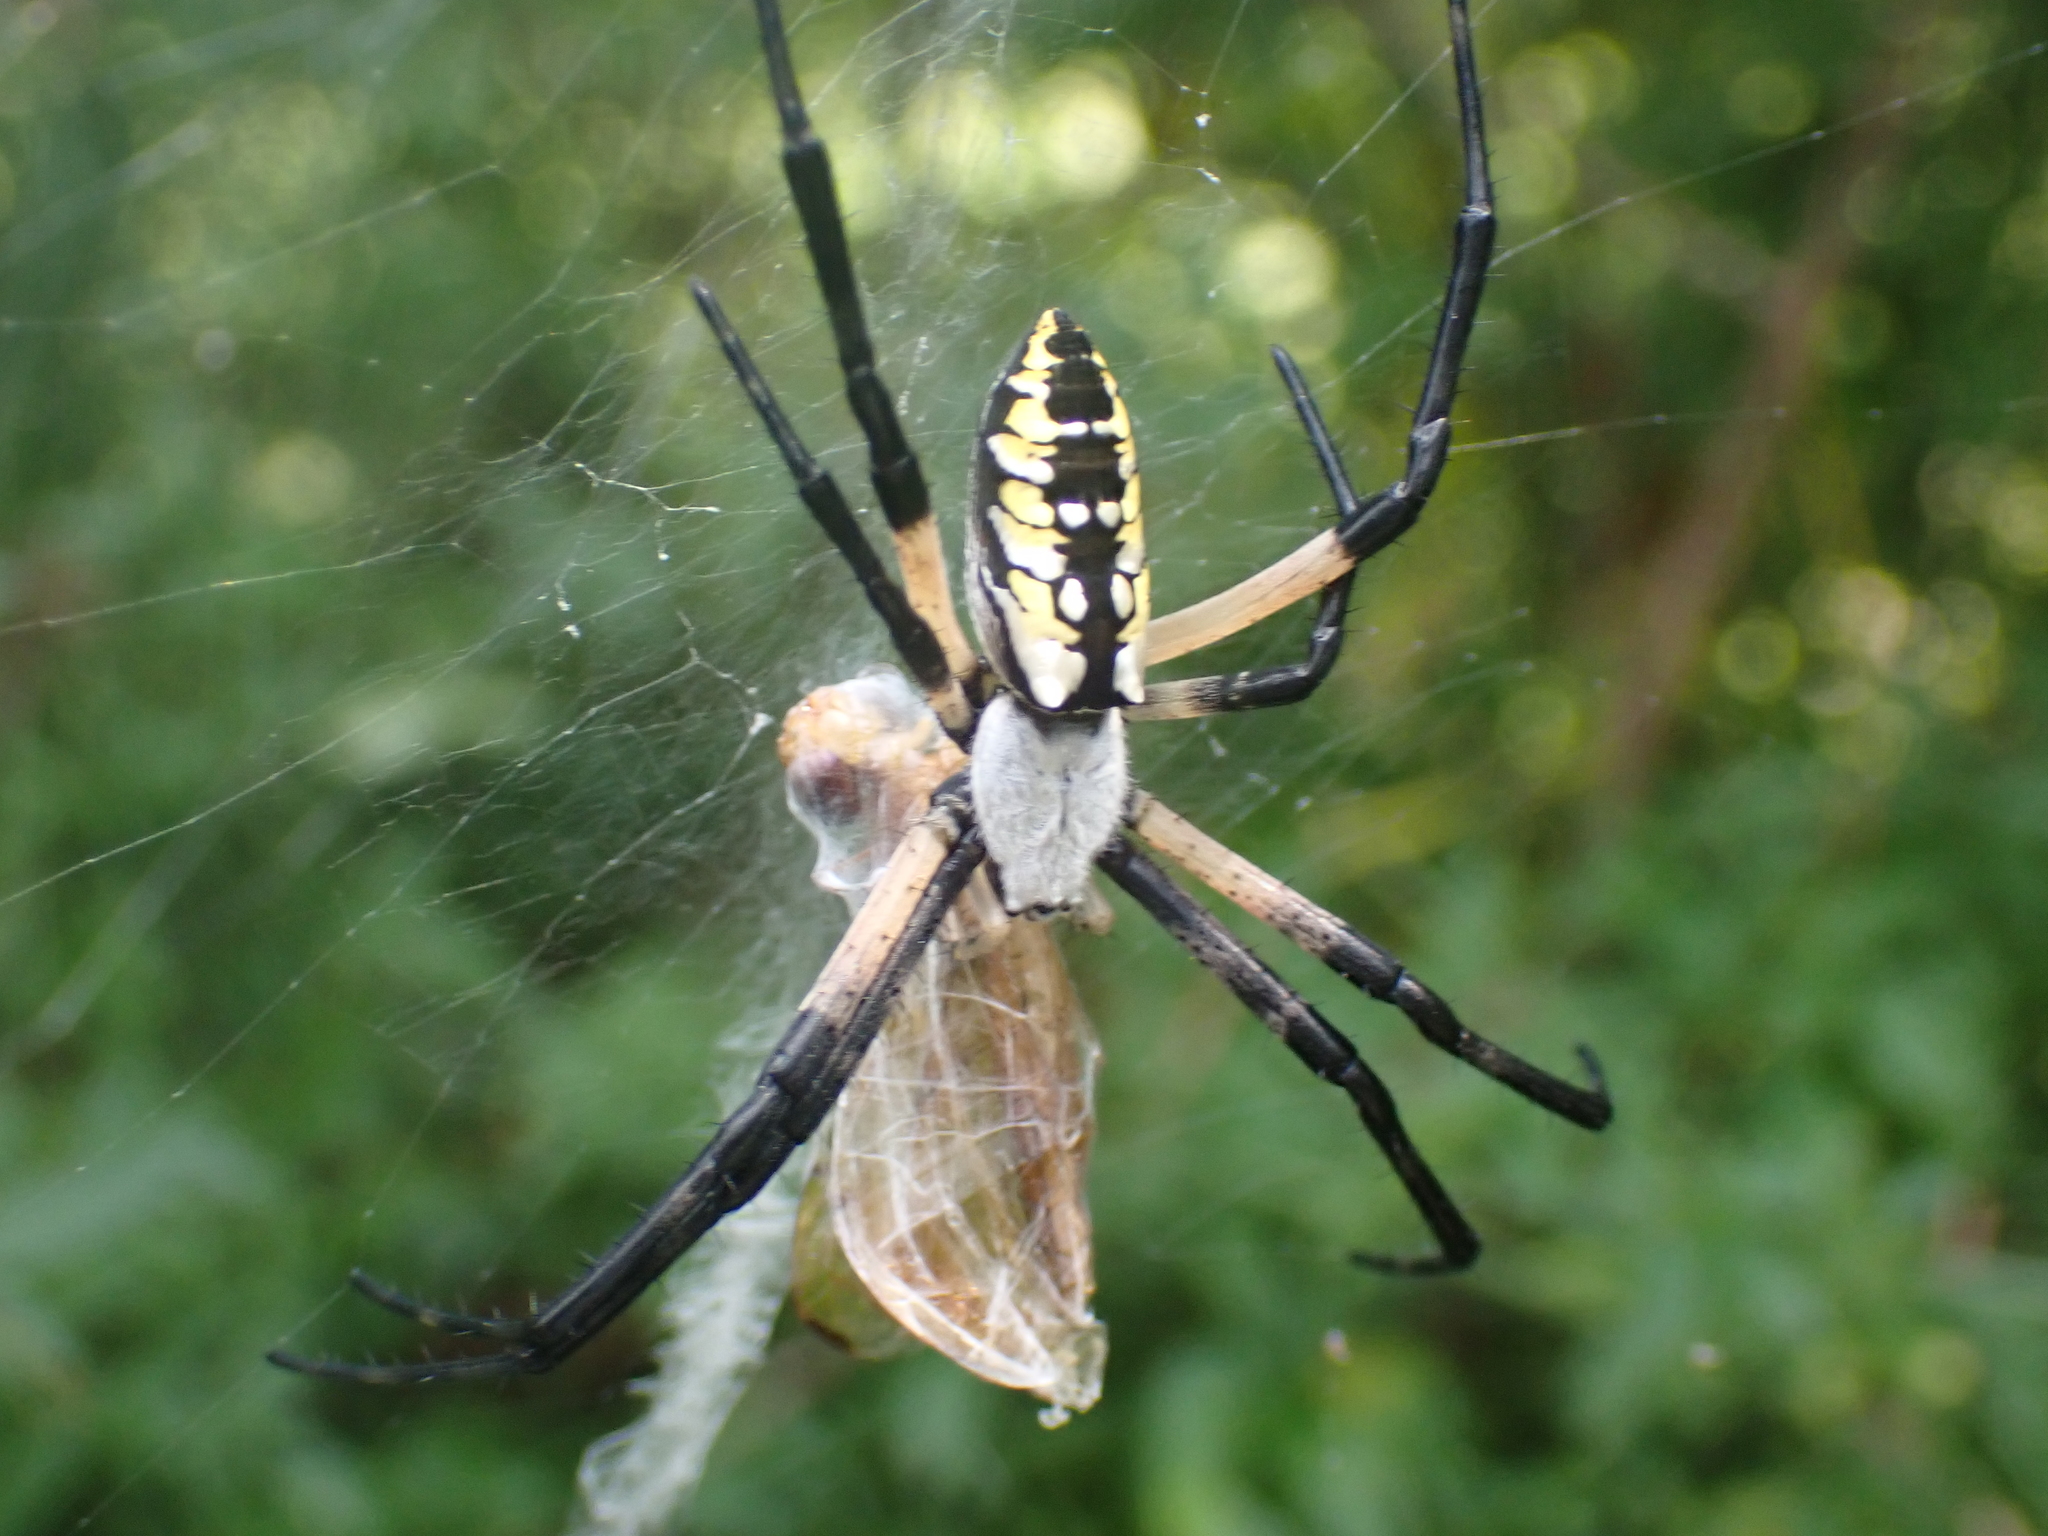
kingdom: Animalia
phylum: Arthropoda
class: Arachnida
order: Araneae
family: Araneidae
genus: Argiope
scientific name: Argiope aurantia
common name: Orb weavers
